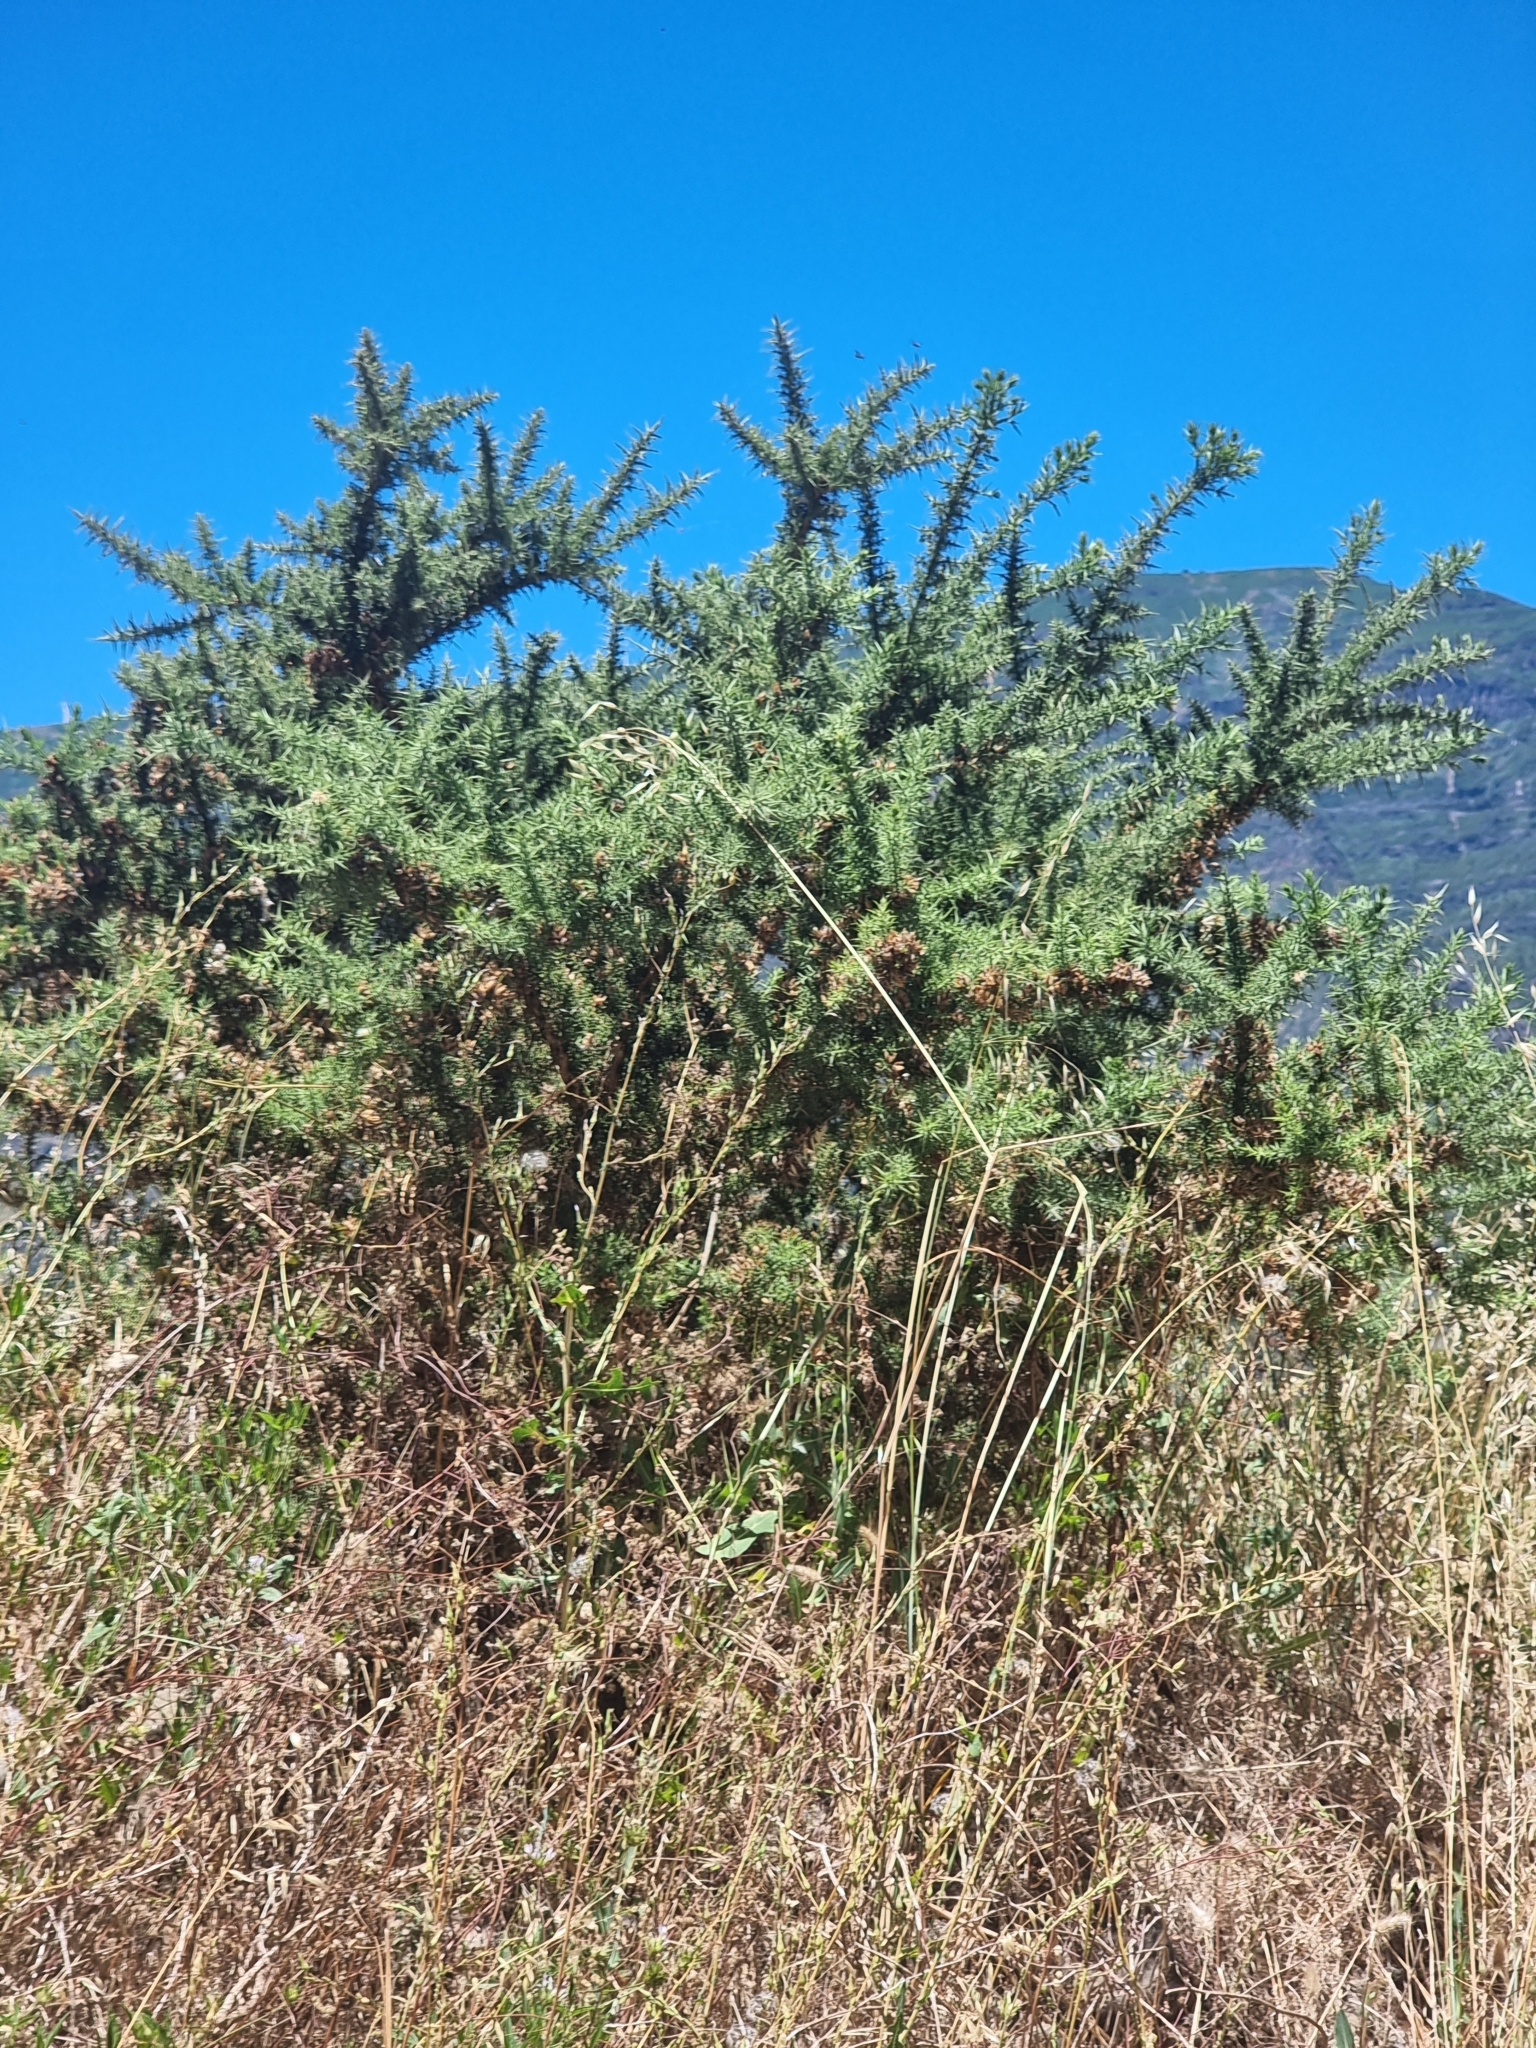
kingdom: Plantae
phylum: Tracheophyta
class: Magnoliopsida
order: Fabales
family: Fabaceae
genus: Ulex
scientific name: Ulex europaeus
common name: Common gorse
